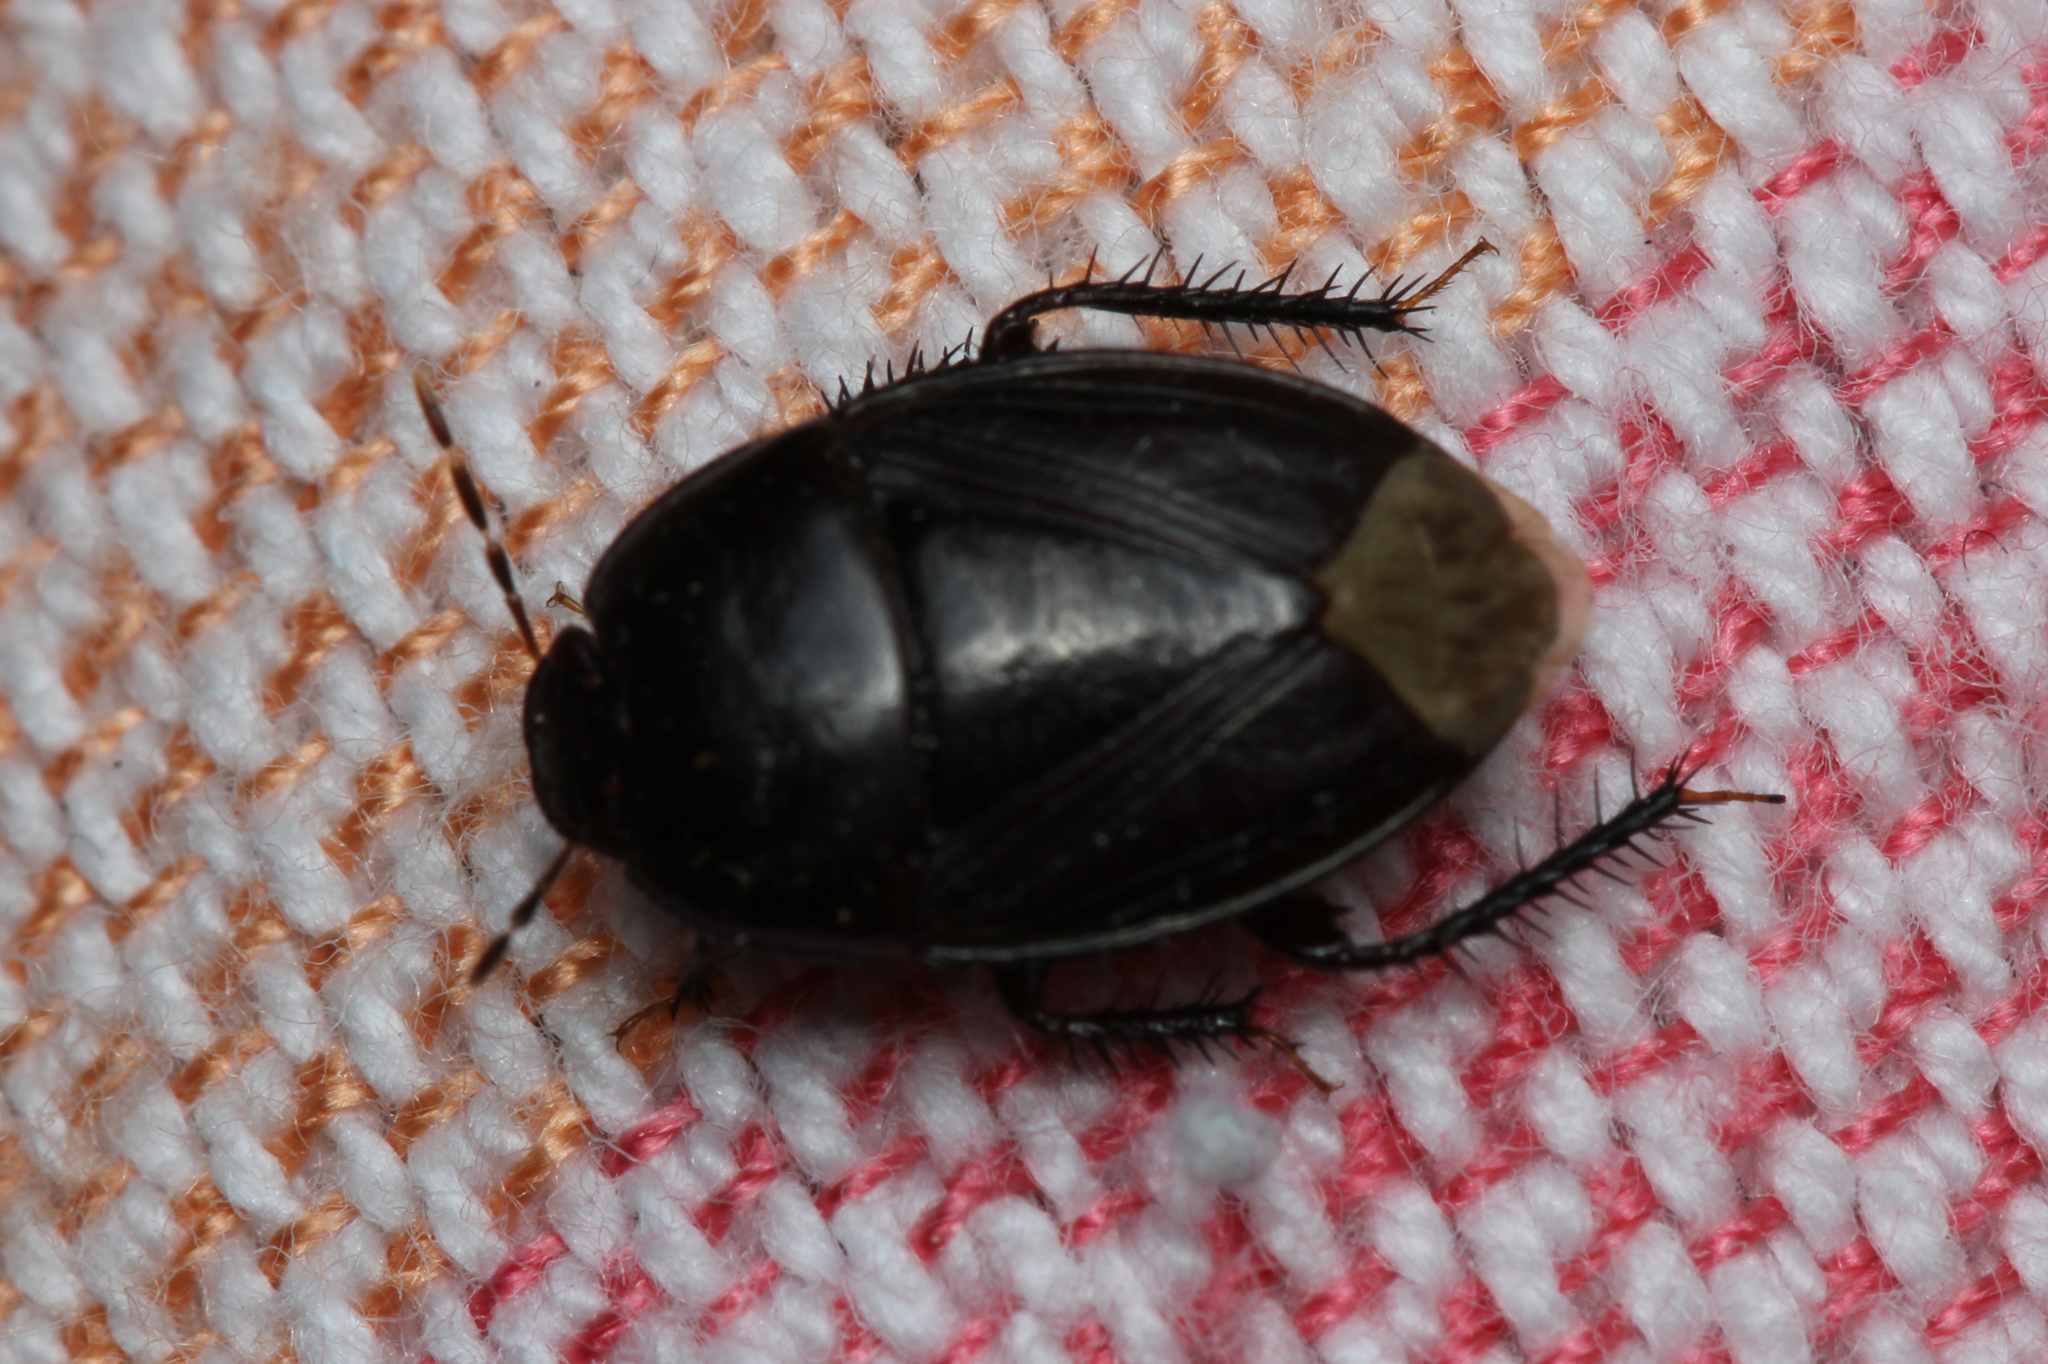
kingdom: Animalia
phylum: Arthropoda
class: Insecta
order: Hemiptera
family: Cydnidae
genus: Macroscytus
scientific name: Macroscytus brunneus
